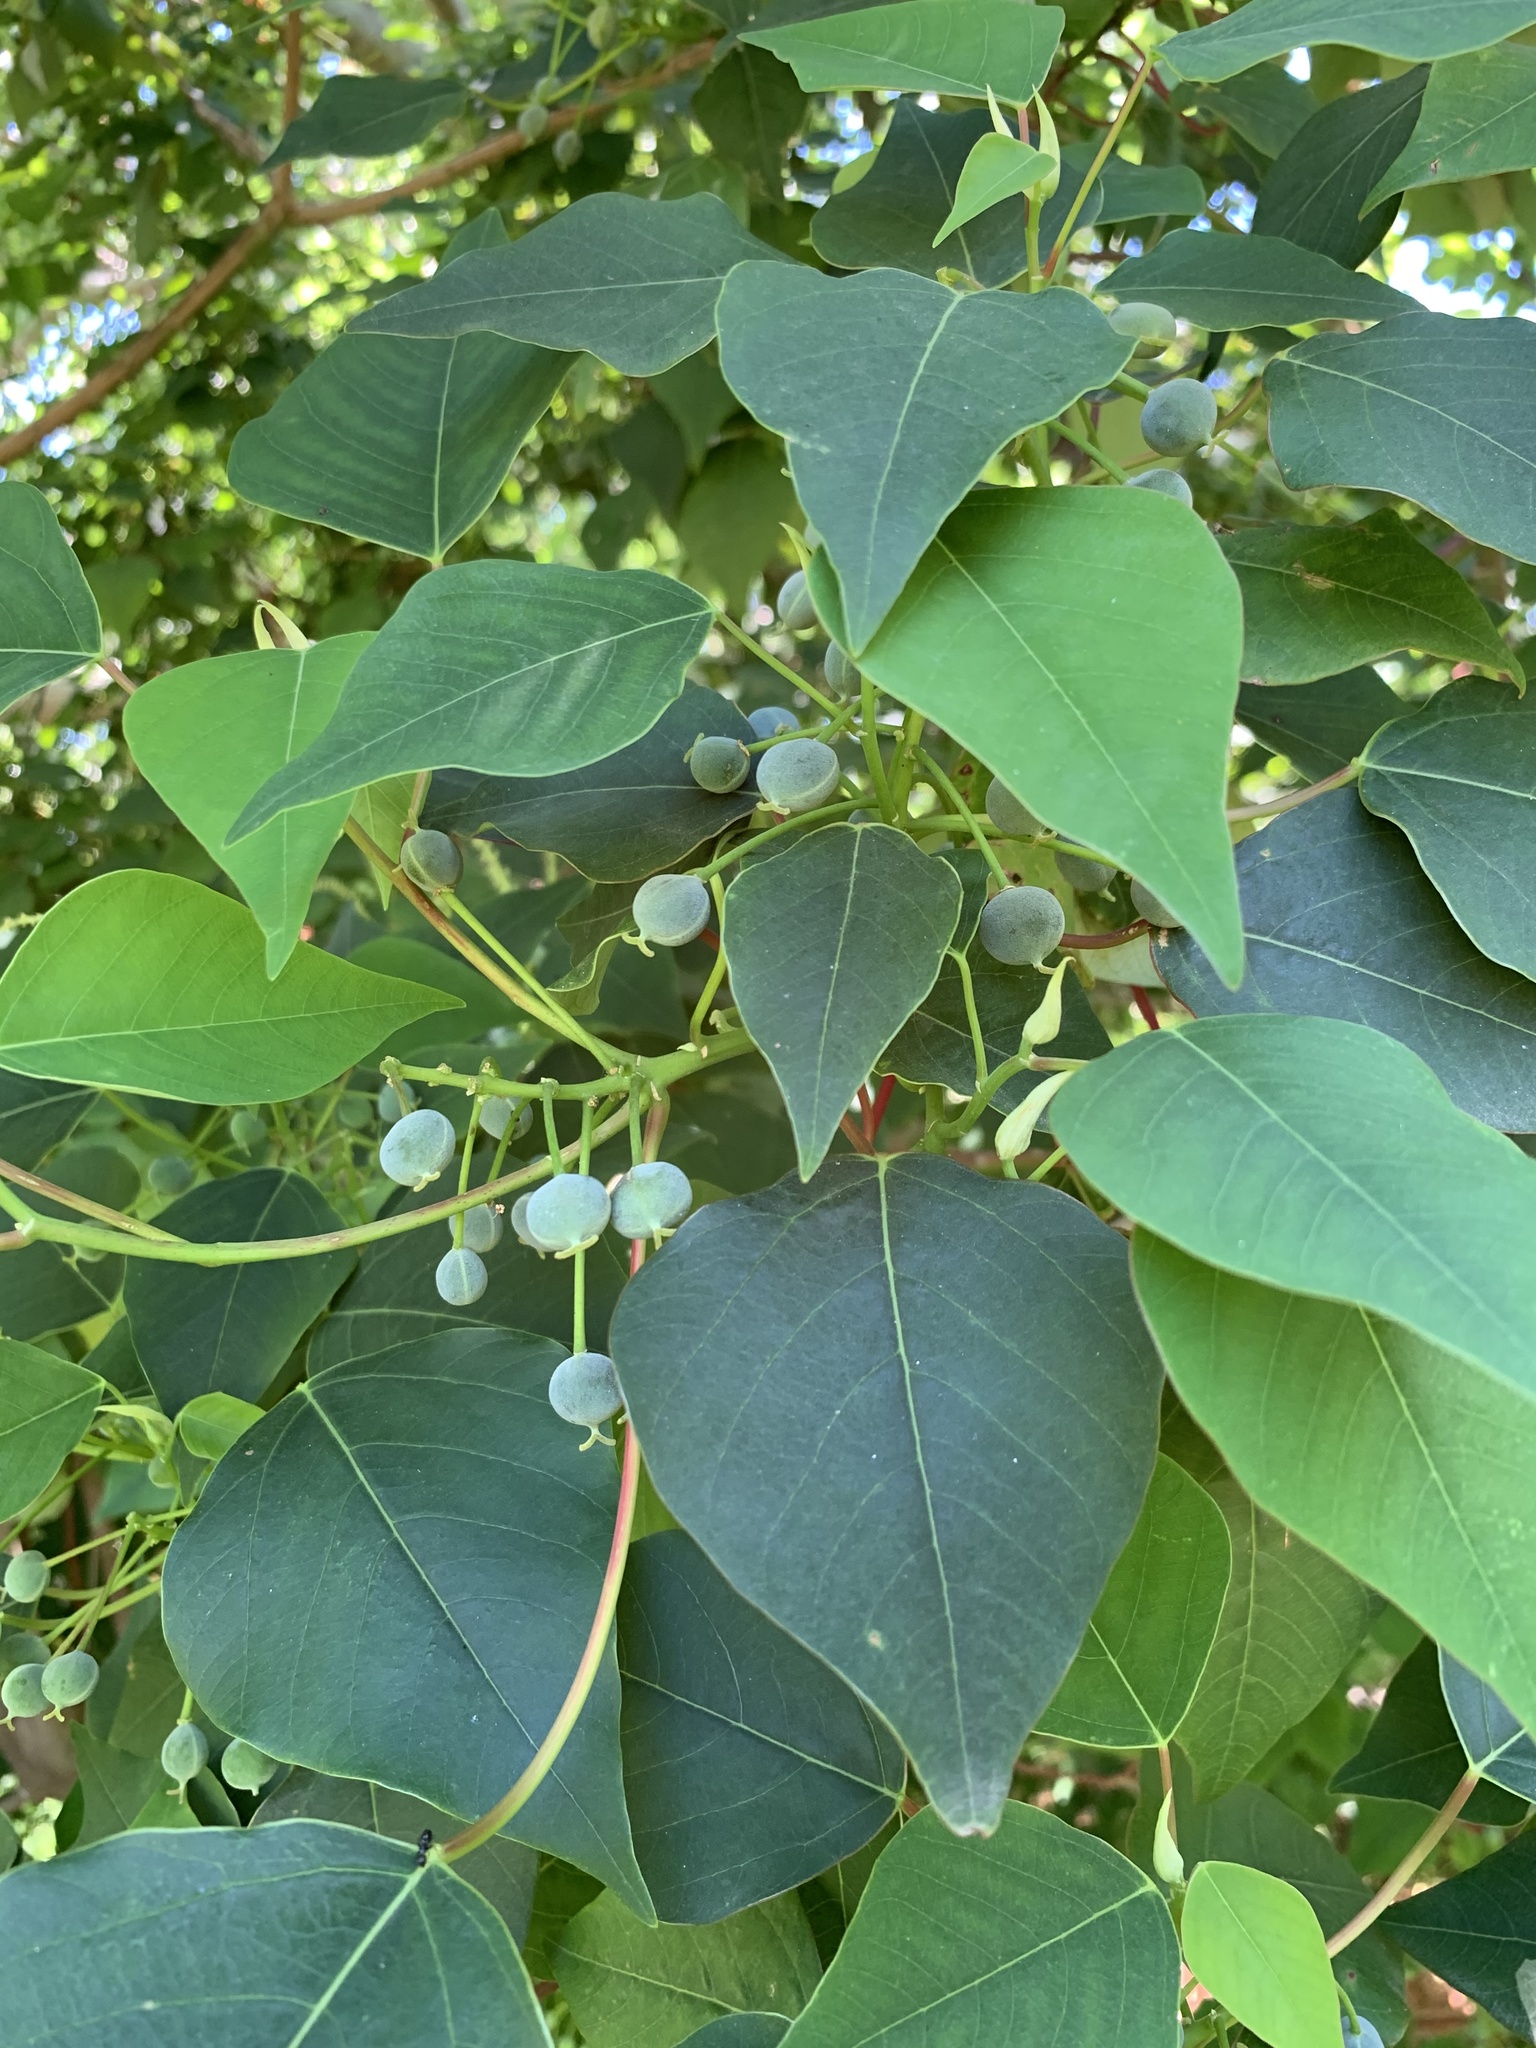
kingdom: Plantae
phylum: Tracheophyta
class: Magnoliopsida
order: Malpighiales
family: Euphorbiaceae
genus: Homalanthus
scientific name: Homalanthus populifolius
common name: Queensland poplar
